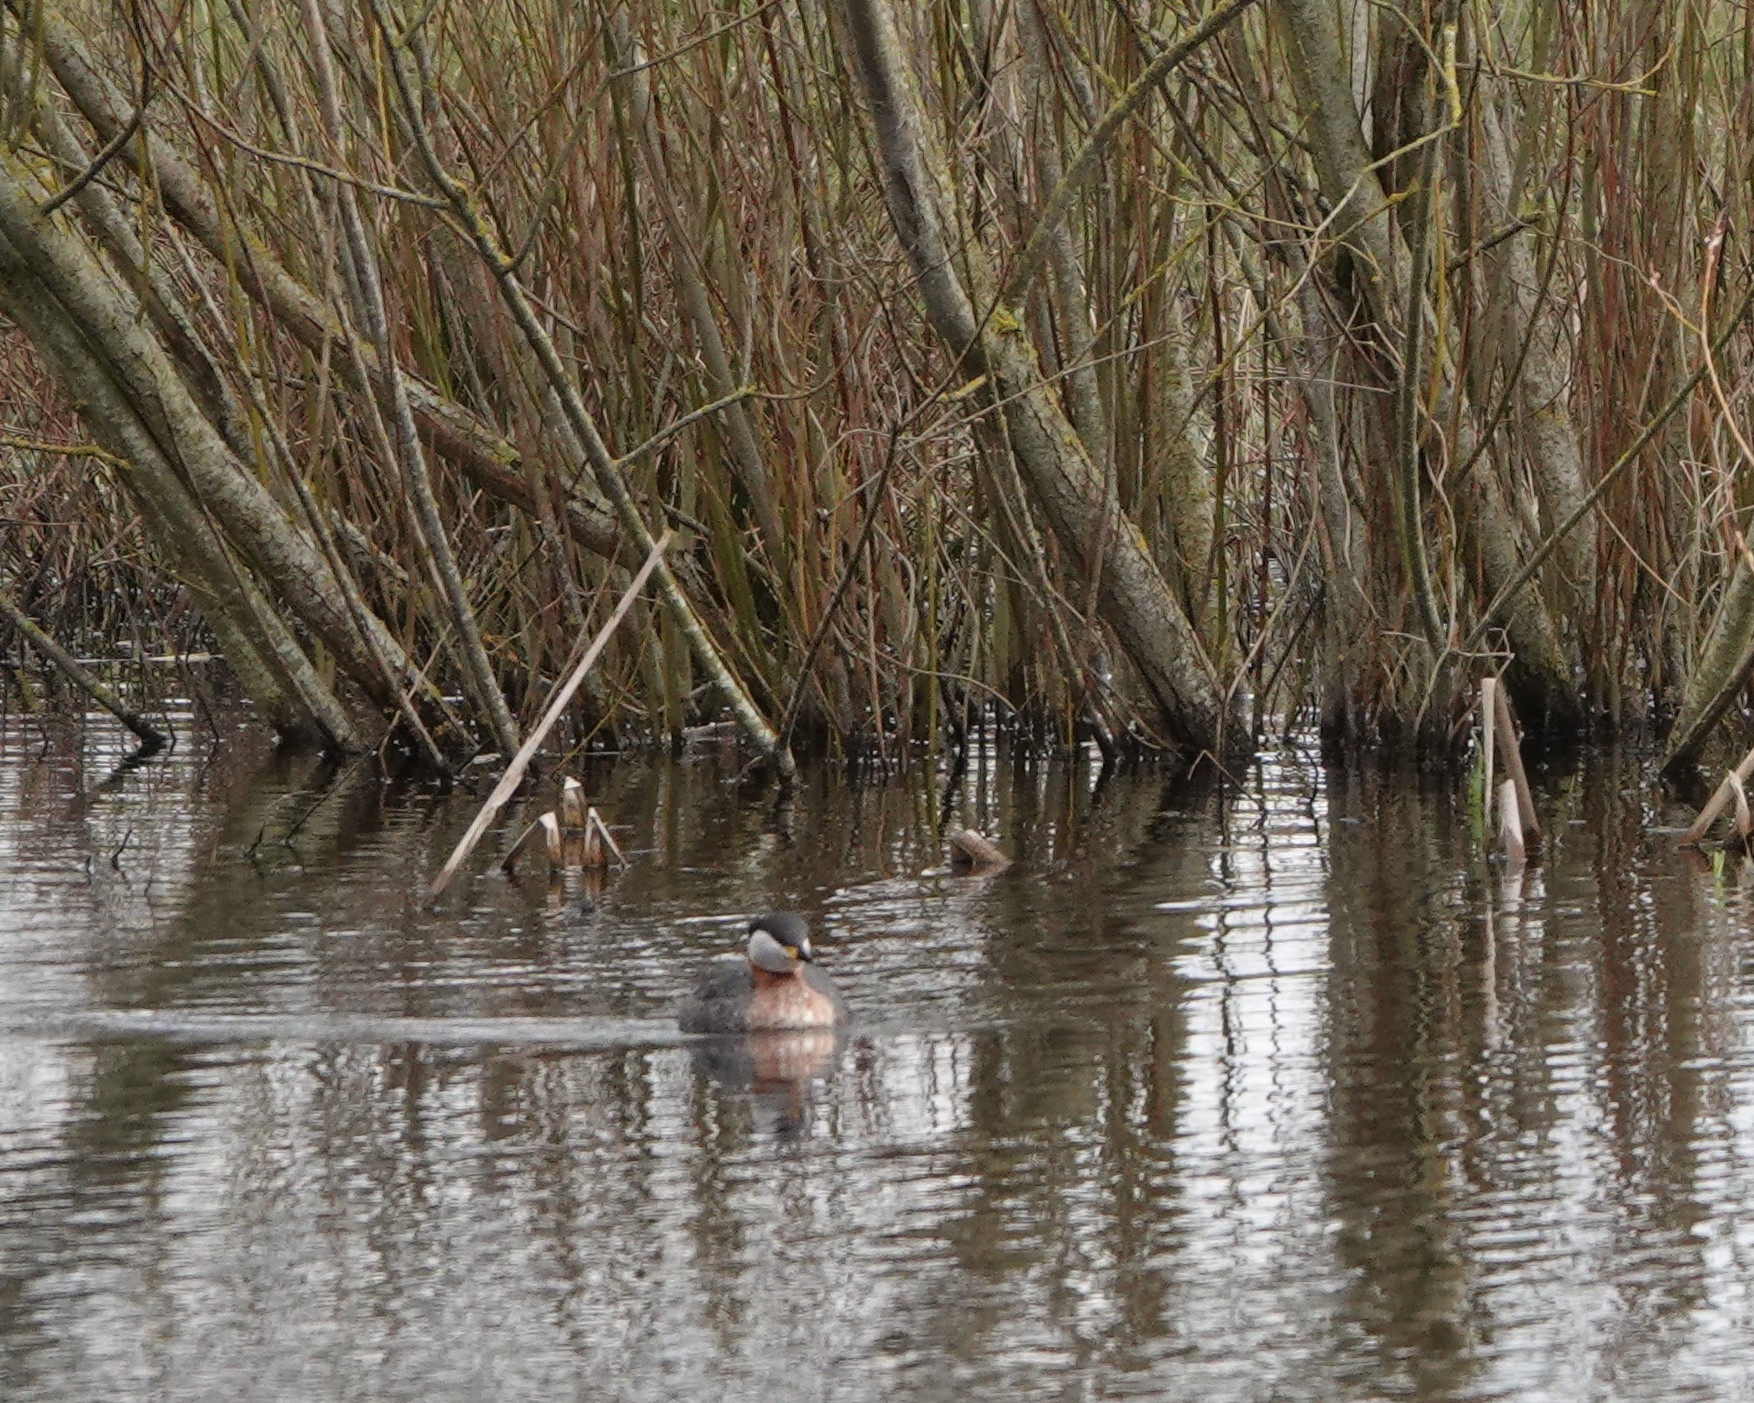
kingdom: Animalia
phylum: Chordata
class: Aves
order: Podicipediformes
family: Podicipedidae
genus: Podiceps
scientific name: Podiceps grisegena
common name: Red-necked grebe
